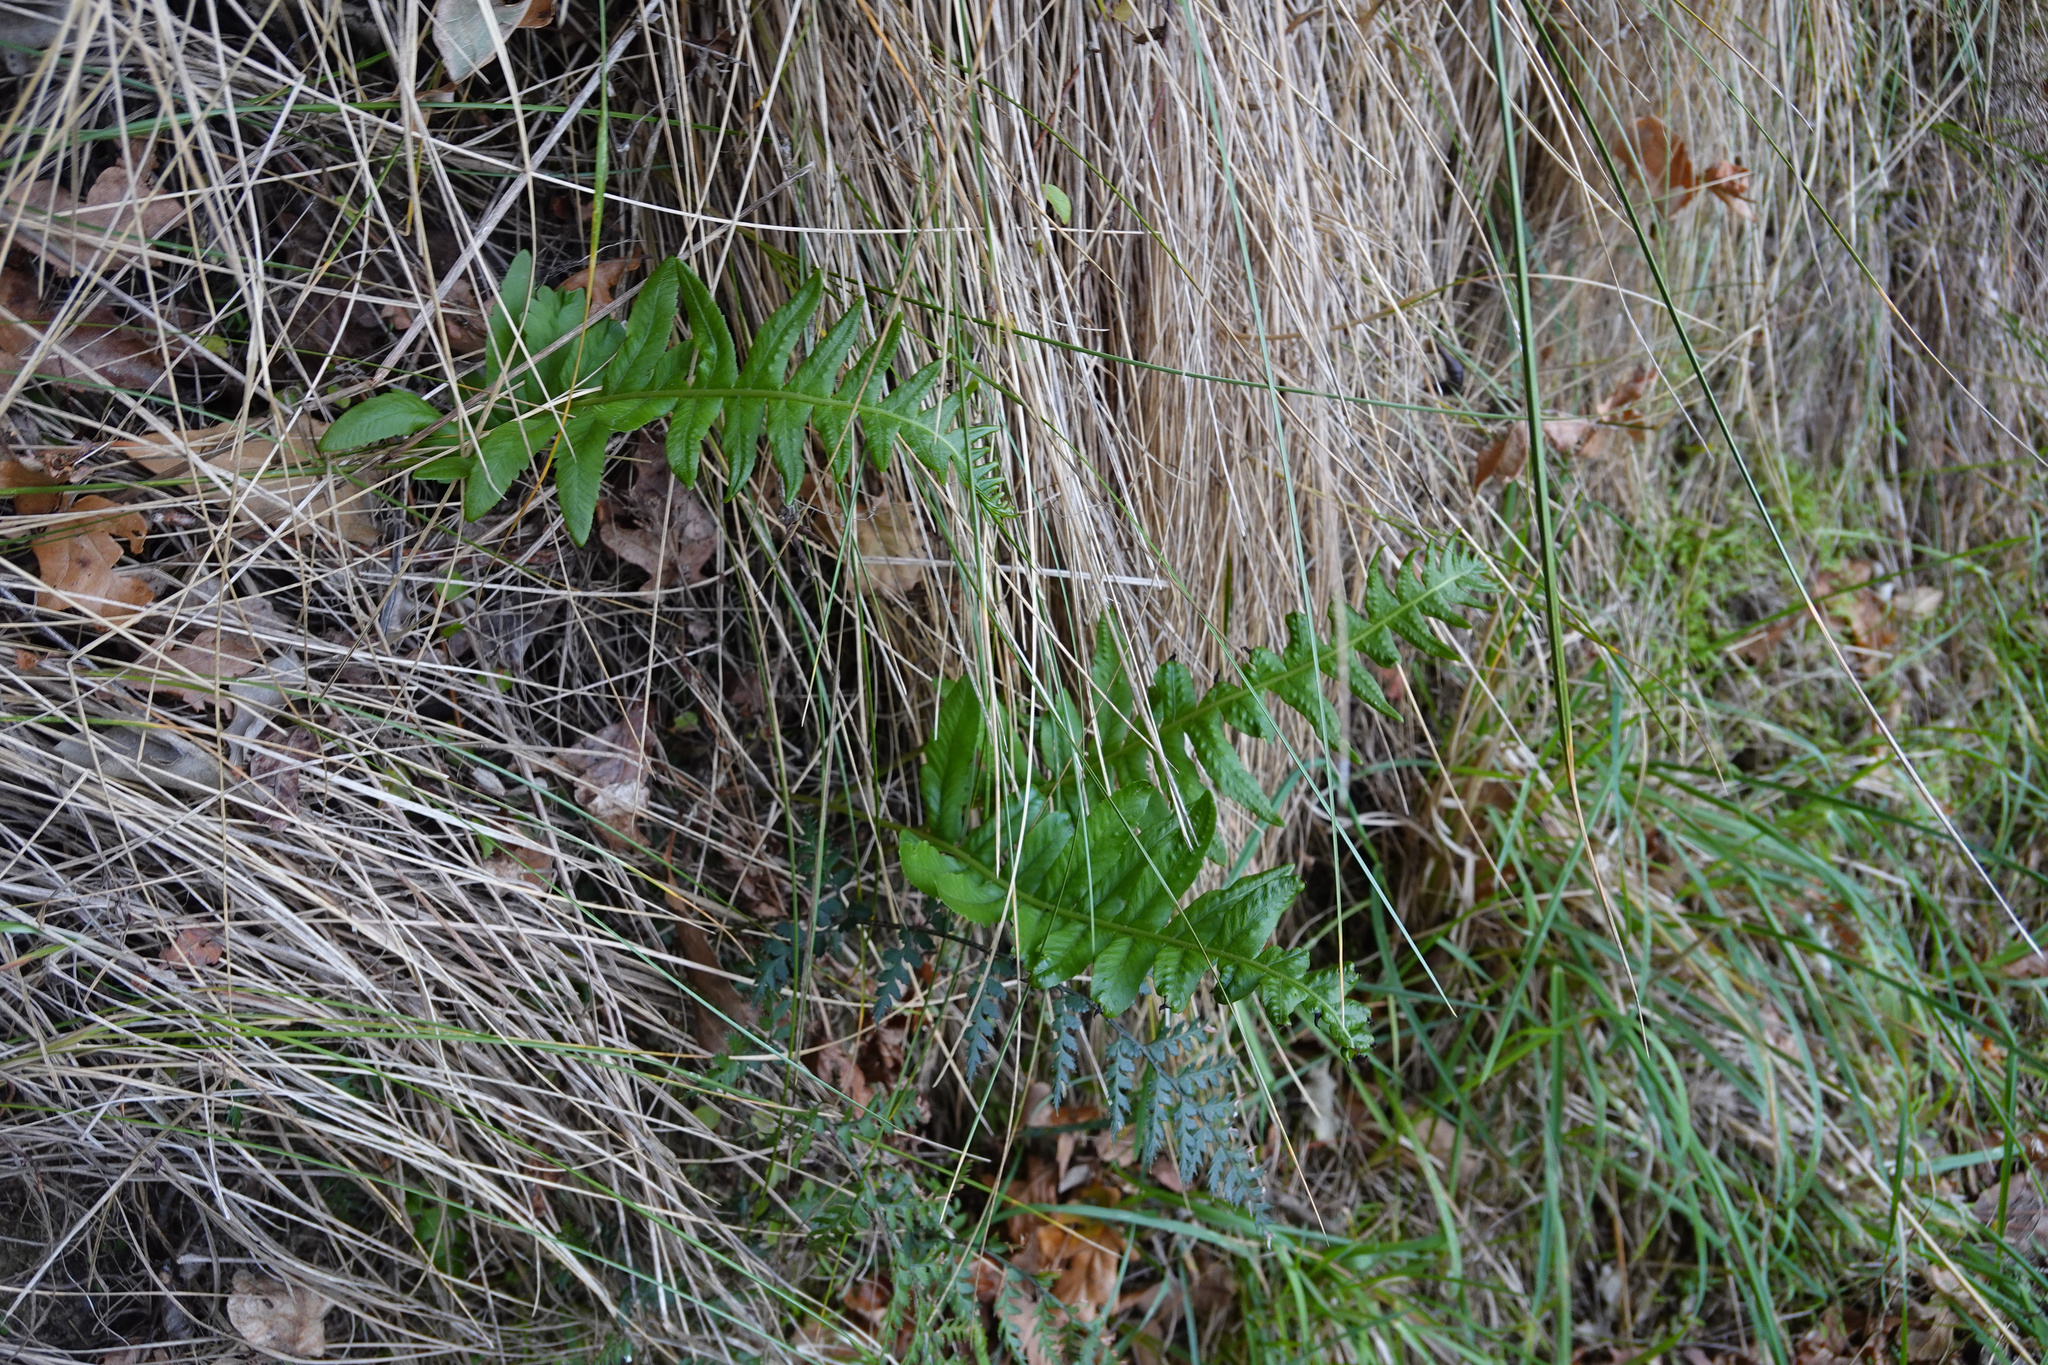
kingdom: Plantae
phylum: Tracheophyta
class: Polypodiopsida
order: Polypodiales
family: Polypodiaceae
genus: Polypodium
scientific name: Polypodium vulgare
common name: Common polypody
